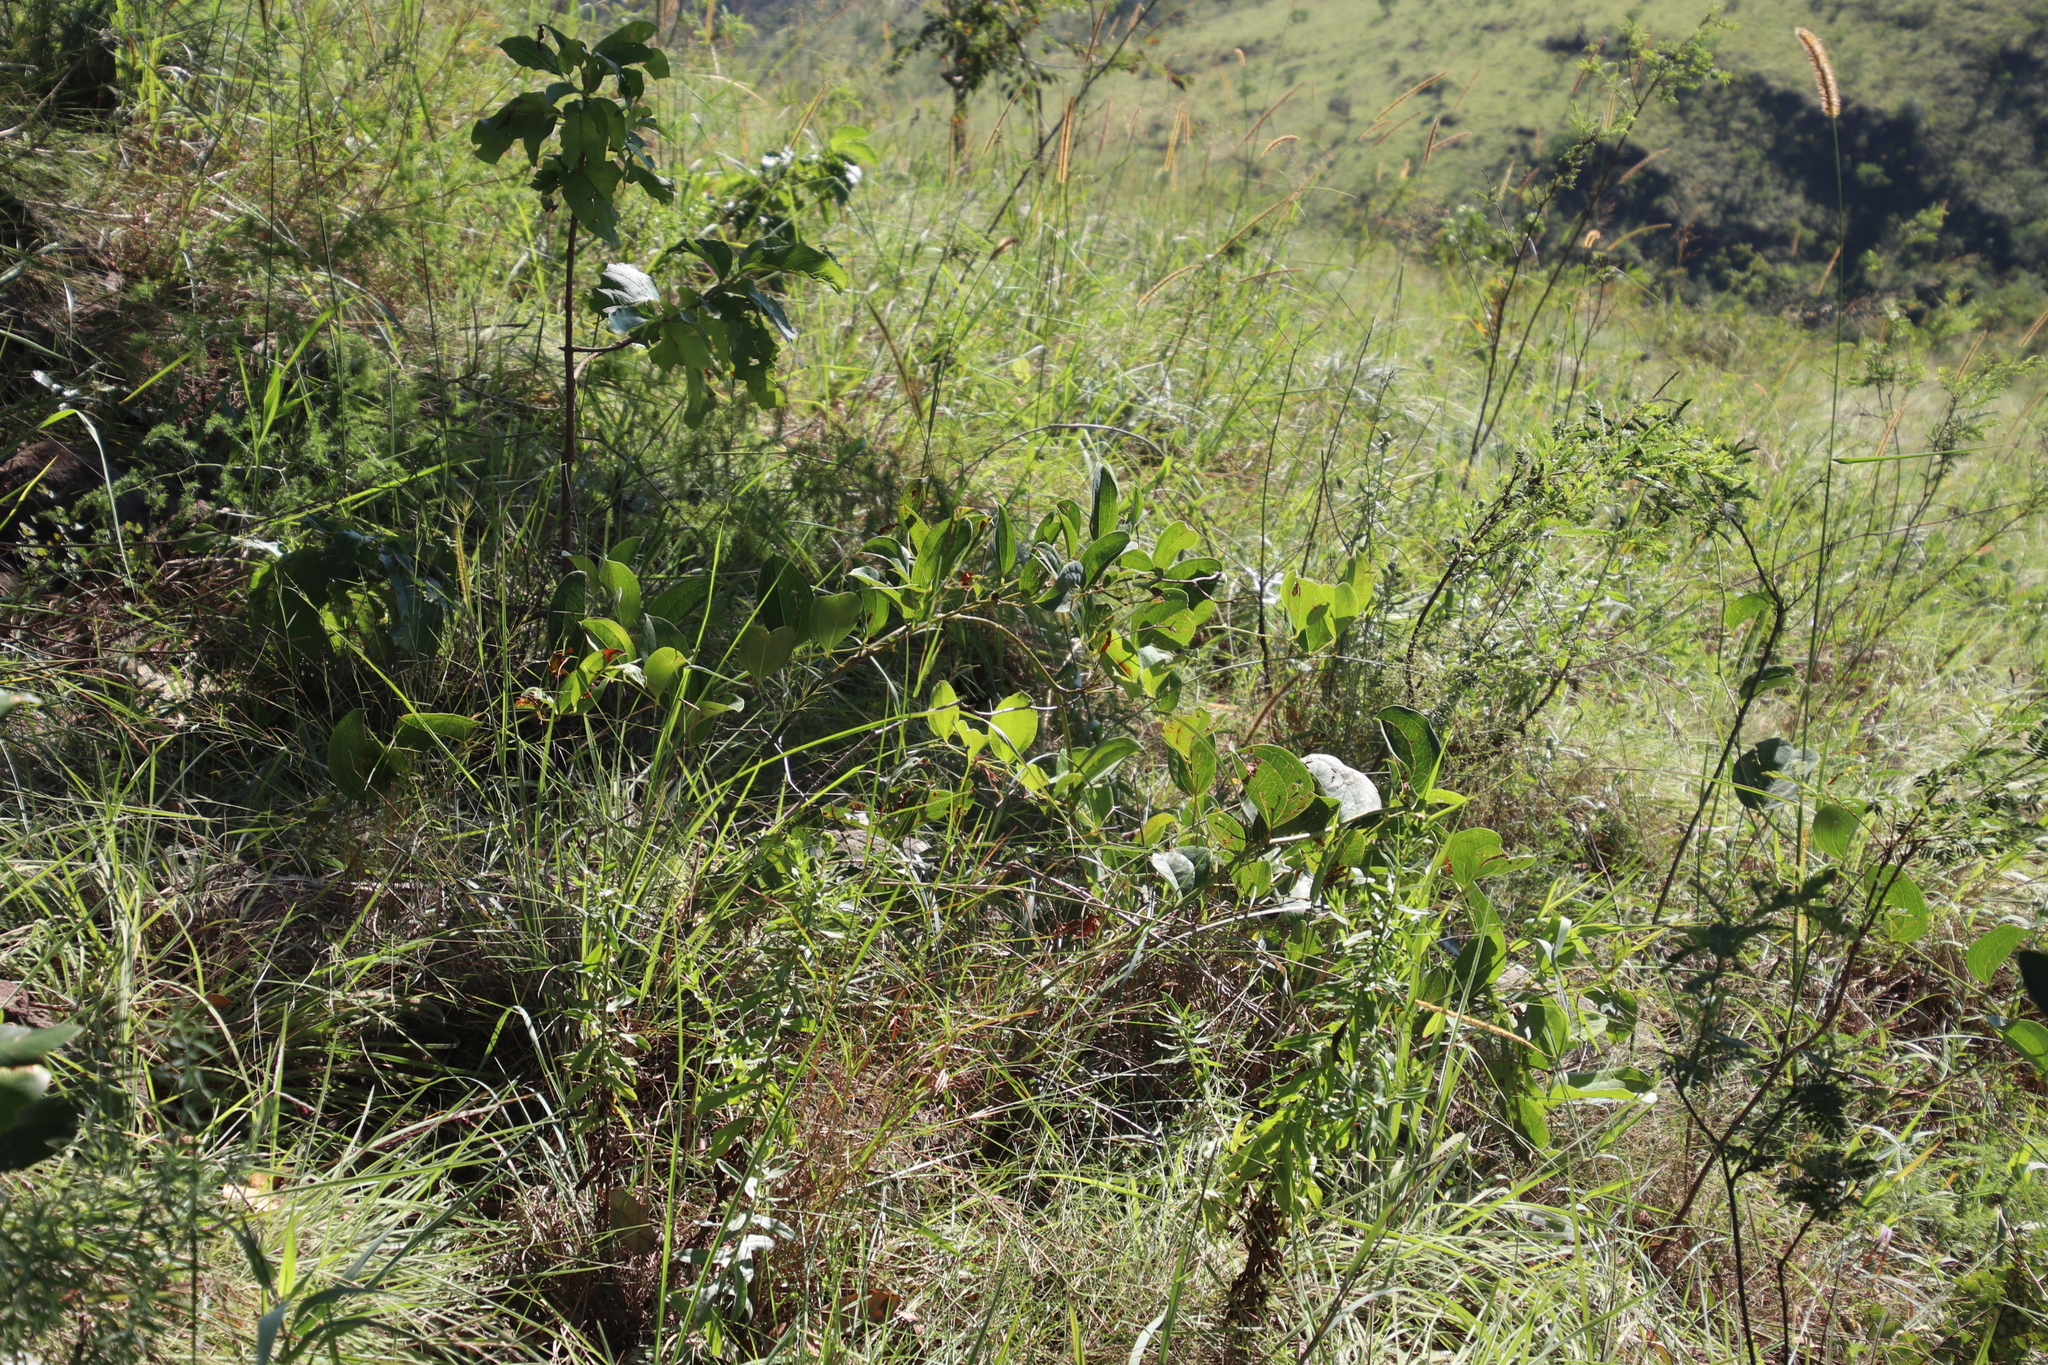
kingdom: Plantae
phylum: Tracheophyta
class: Liliopsida
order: Liliales
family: Smilacaceae
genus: Smilax
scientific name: Smilax anceps
